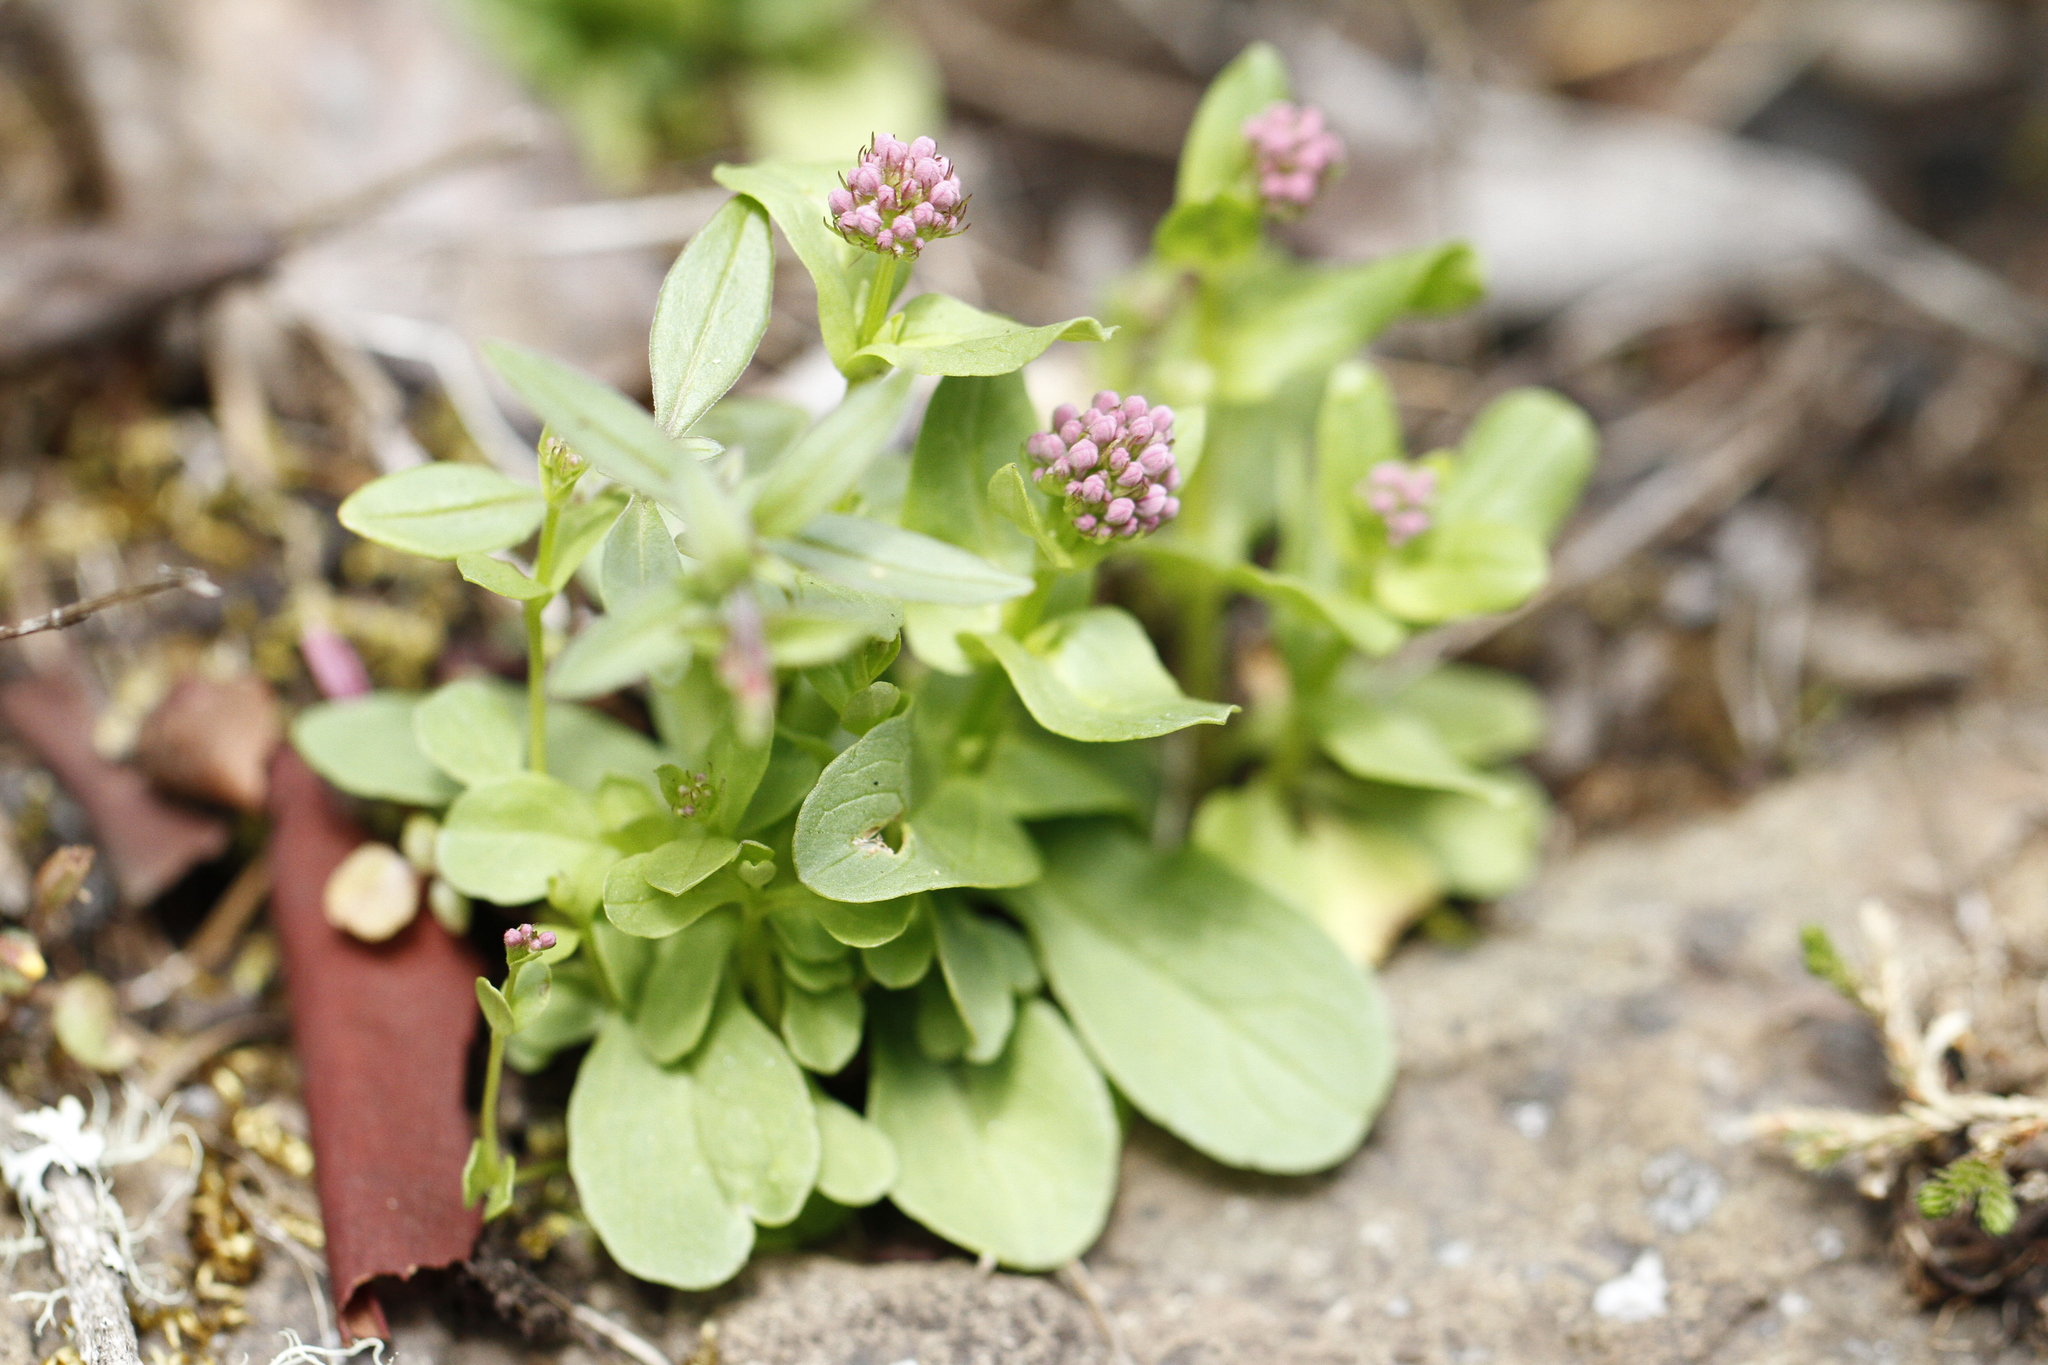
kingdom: Plantae
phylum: Tracheophyta
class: Magnoliopsida
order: Dipsacales
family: Caprifoliaceae
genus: Plectritis
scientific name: Plectritis congesta
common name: Pink plectritis
